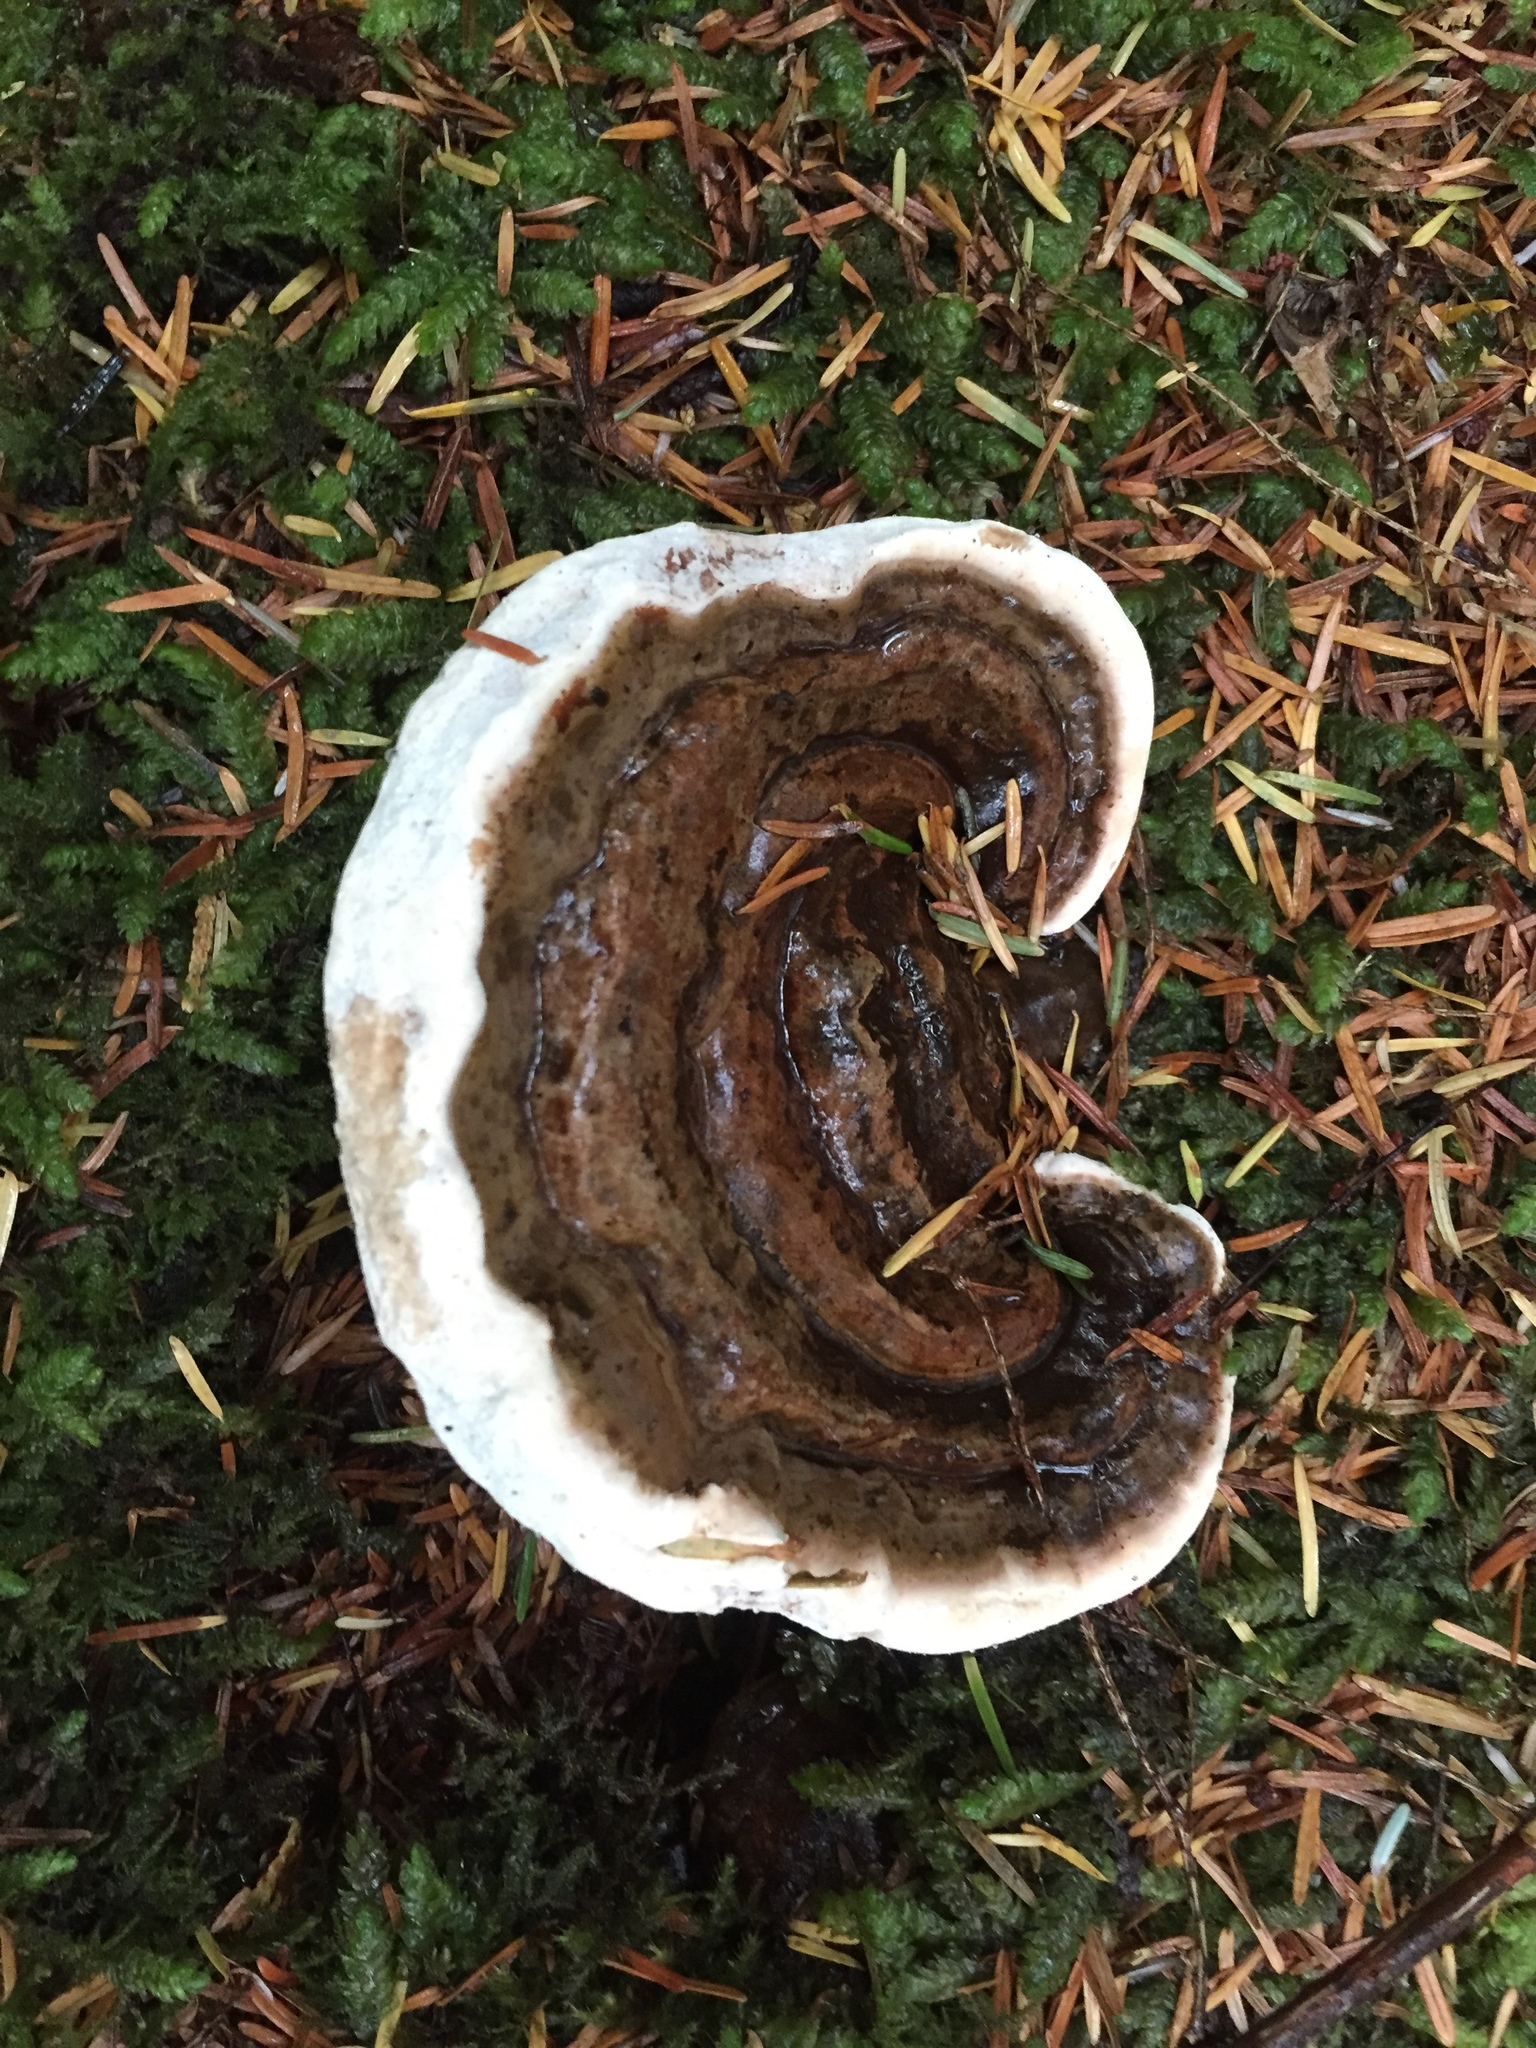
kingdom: Fungi
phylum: Basidiomycota
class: Agaricomycetes
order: Polyporales
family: Polyporaceae
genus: Ganoderma
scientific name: Ganoderma applanatum
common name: Artist's bracket
